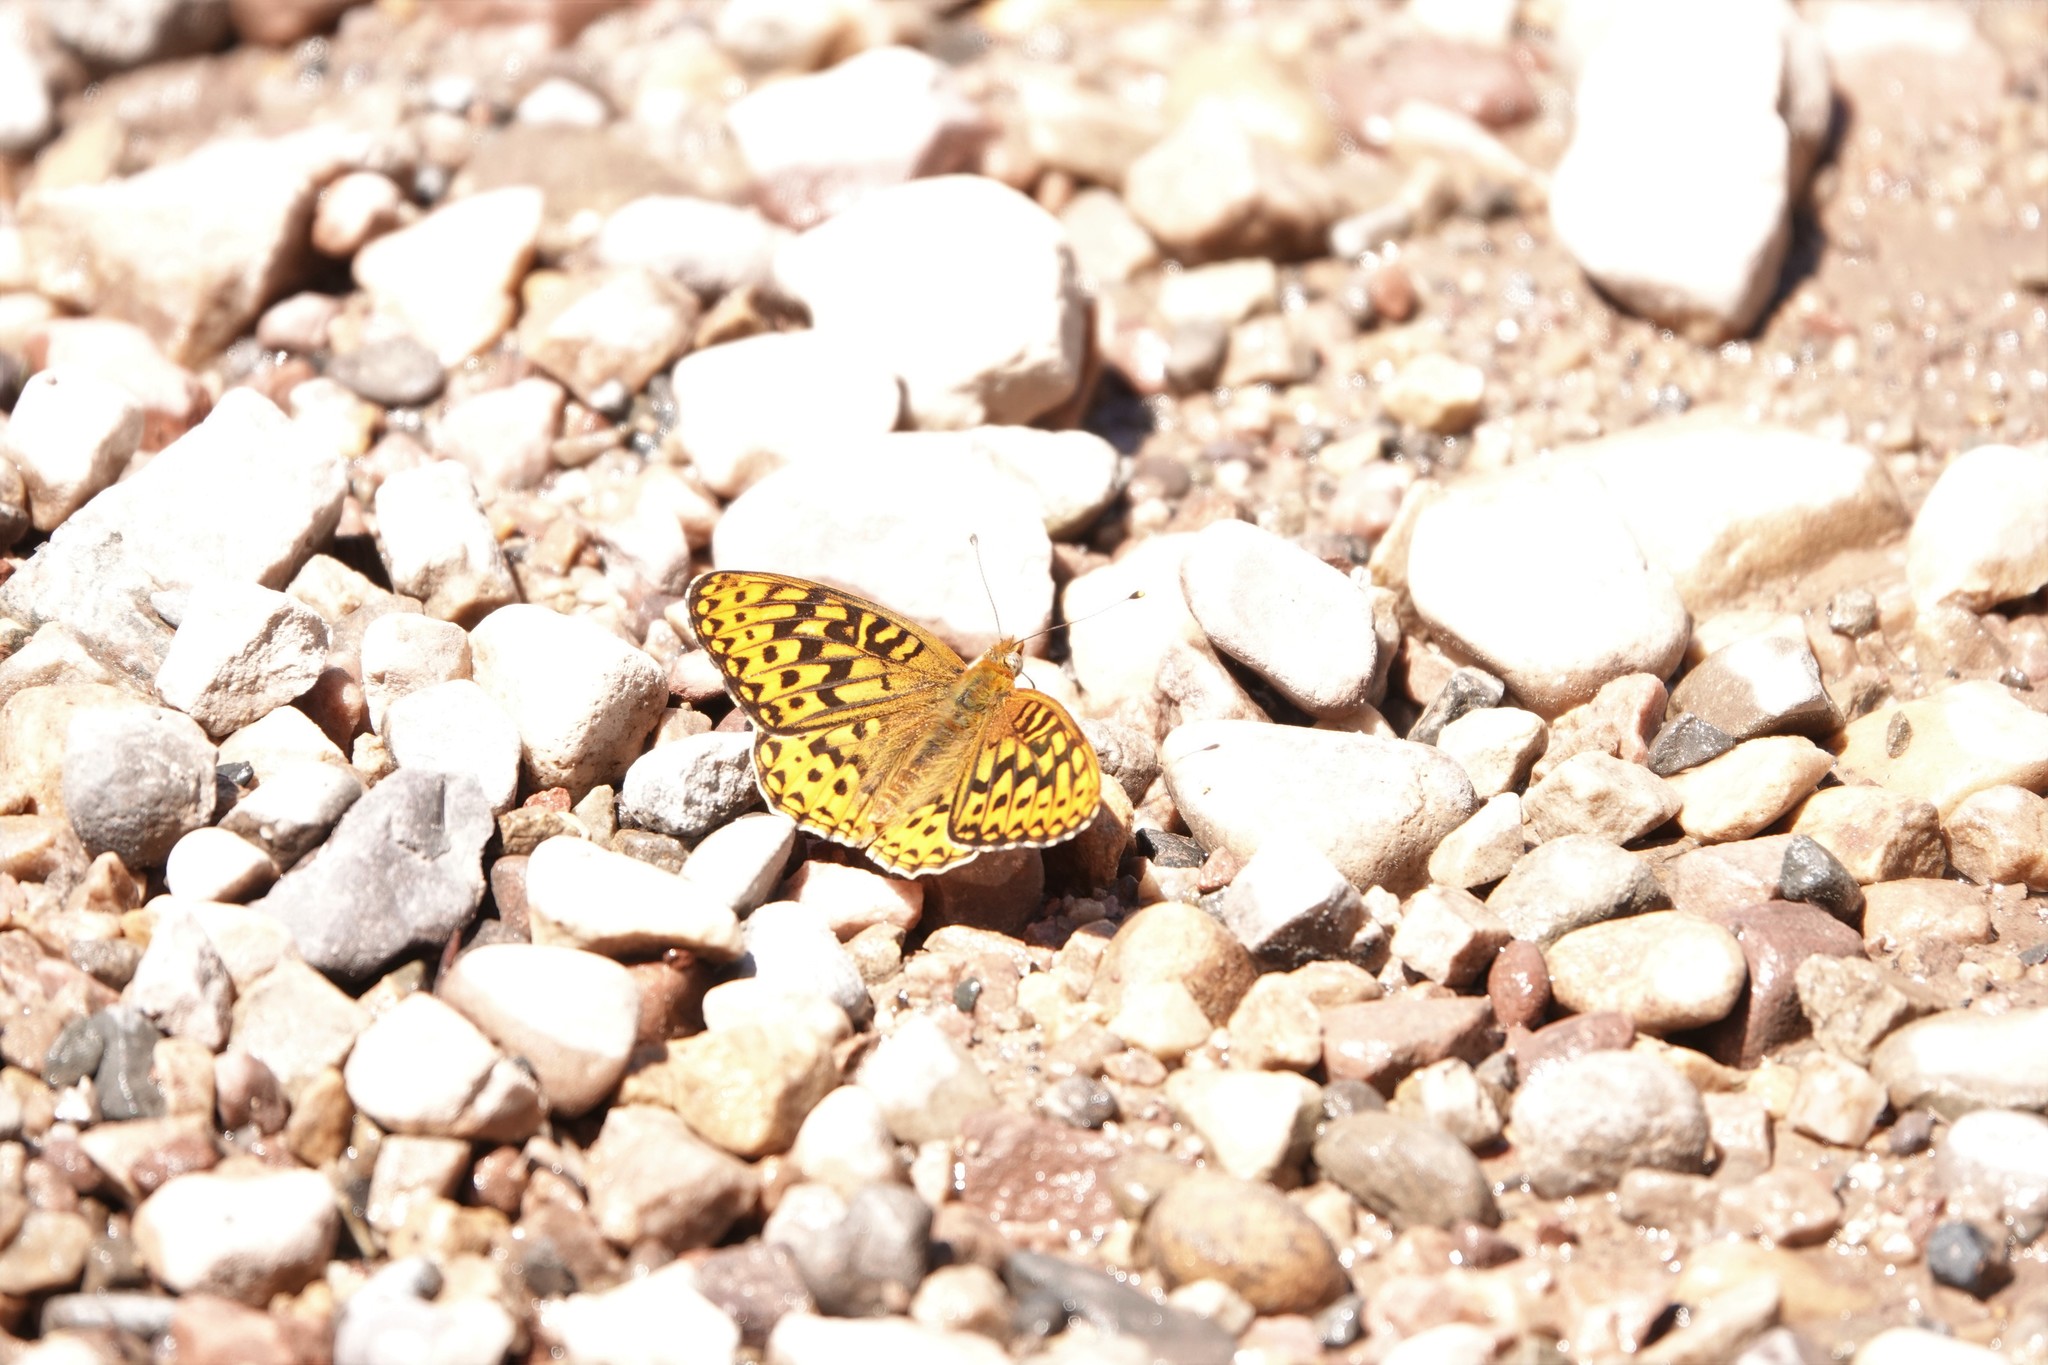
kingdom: Animalia
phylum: Arthropoda
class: Insecta
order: Lepidoptera
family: Nymphalidae
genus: Speyeria
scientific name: Speyeria zerene
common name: Zerene fritillary
